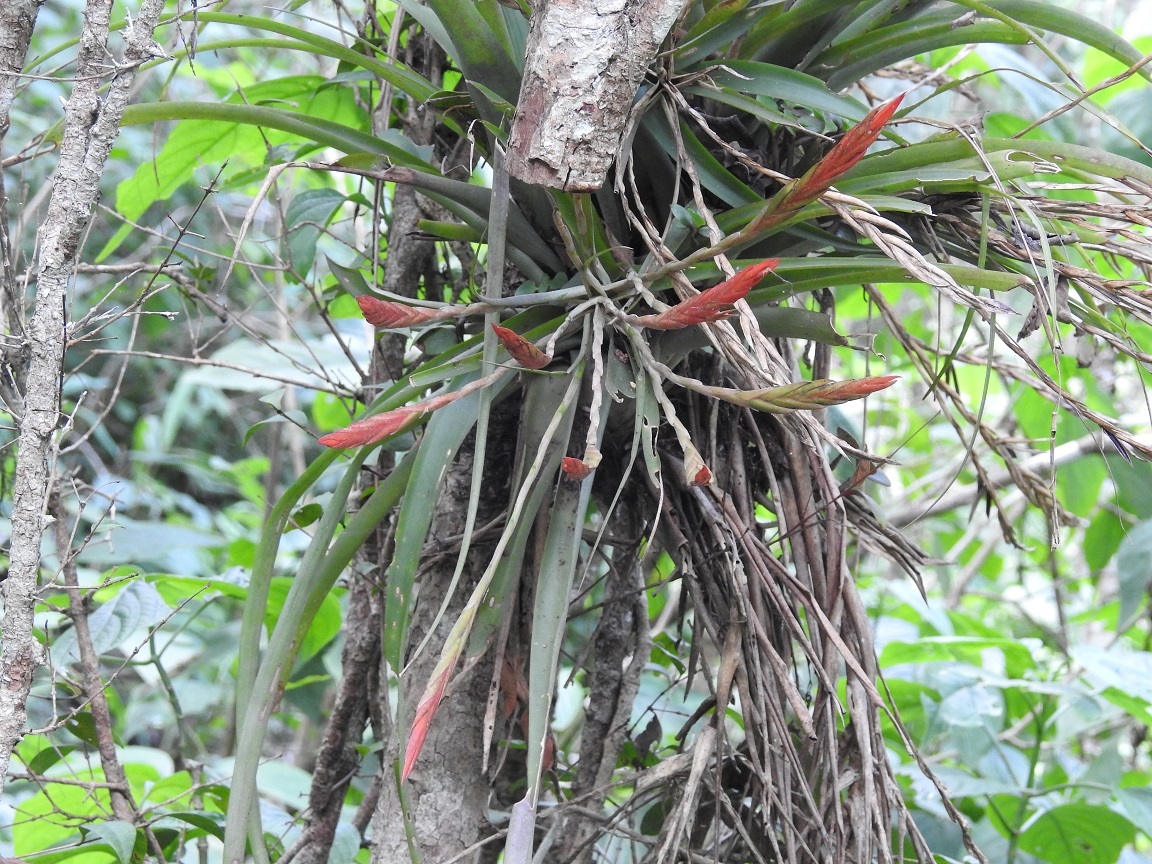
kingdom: Plantae
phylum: Tracheophyta
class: Liliopsida
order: Poales
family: Bromeliaceae
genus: Tillandsia
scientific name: Tillandsia flabellata
